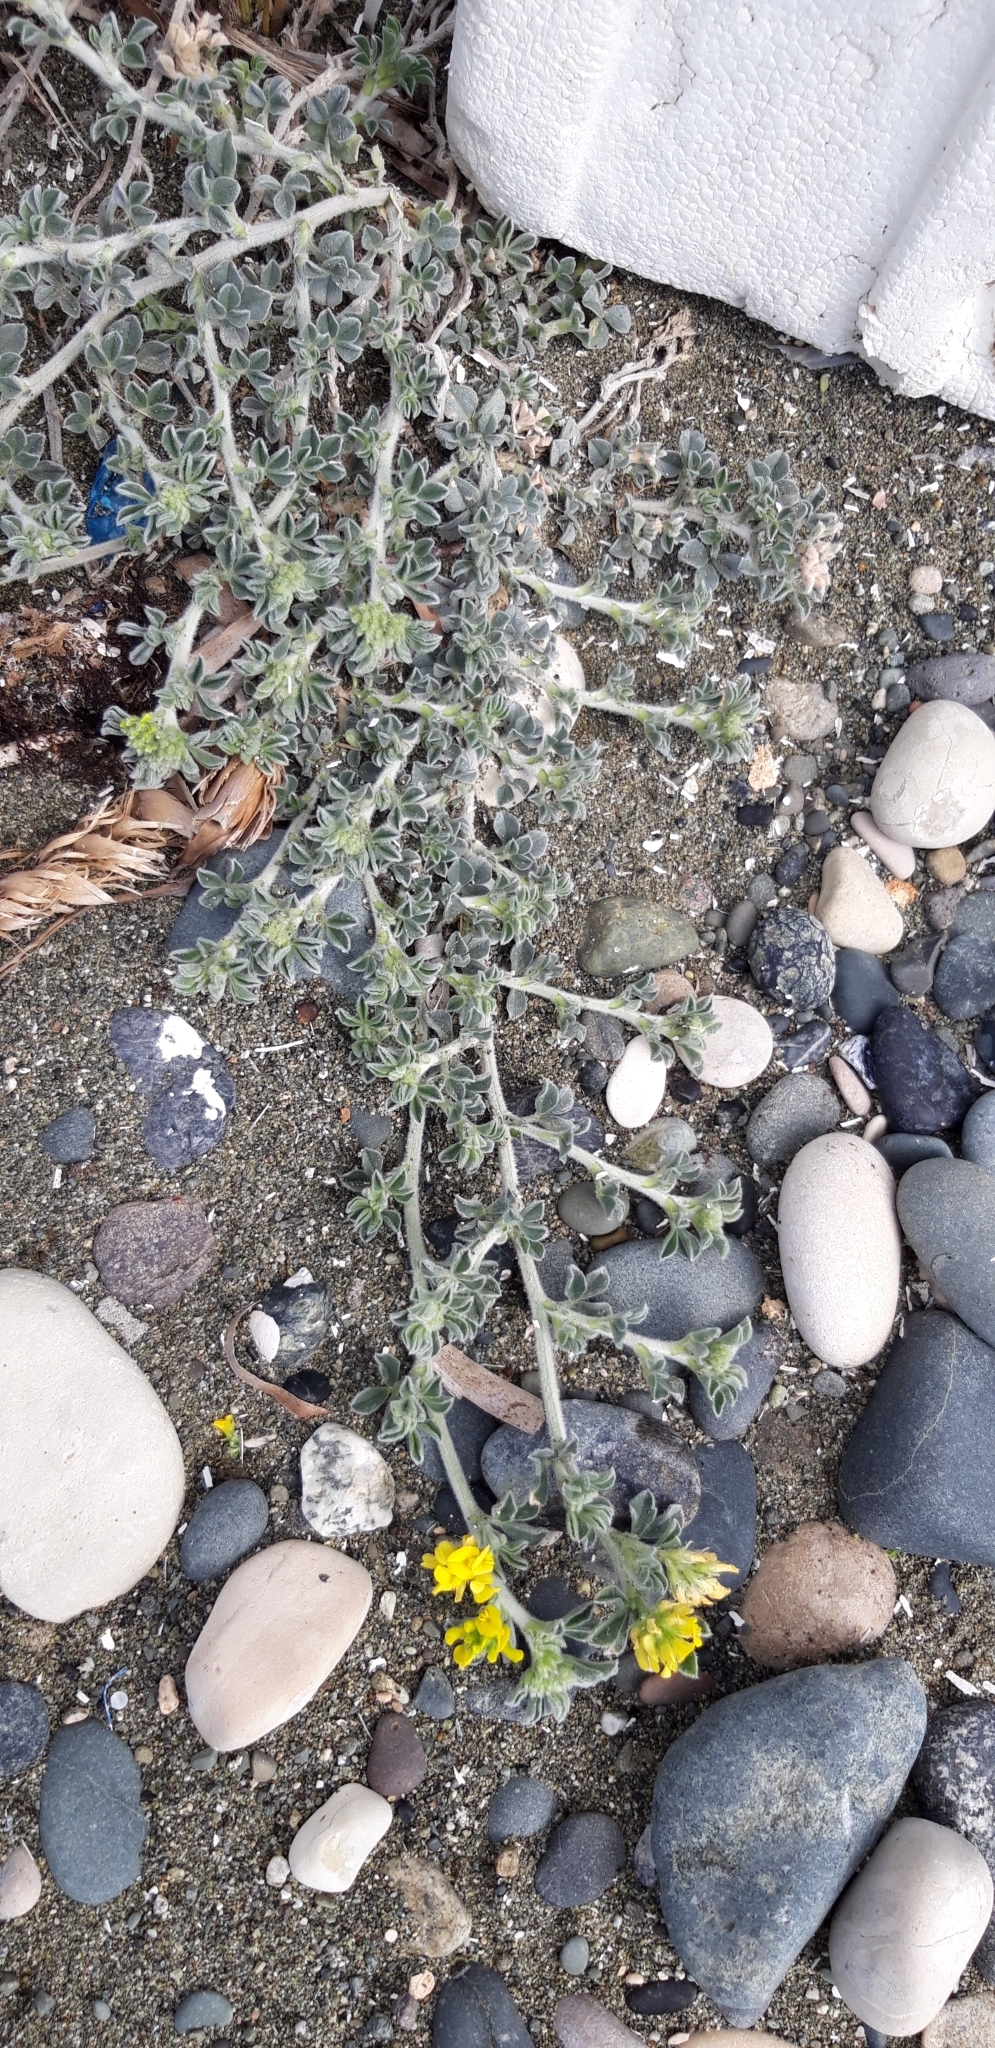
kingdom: Plantae
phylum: Tracheophyta
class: Magnoliopsida
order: Fabales
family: Fabaceae
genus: Medicago
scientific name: Medicago marina
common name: Sea medick
